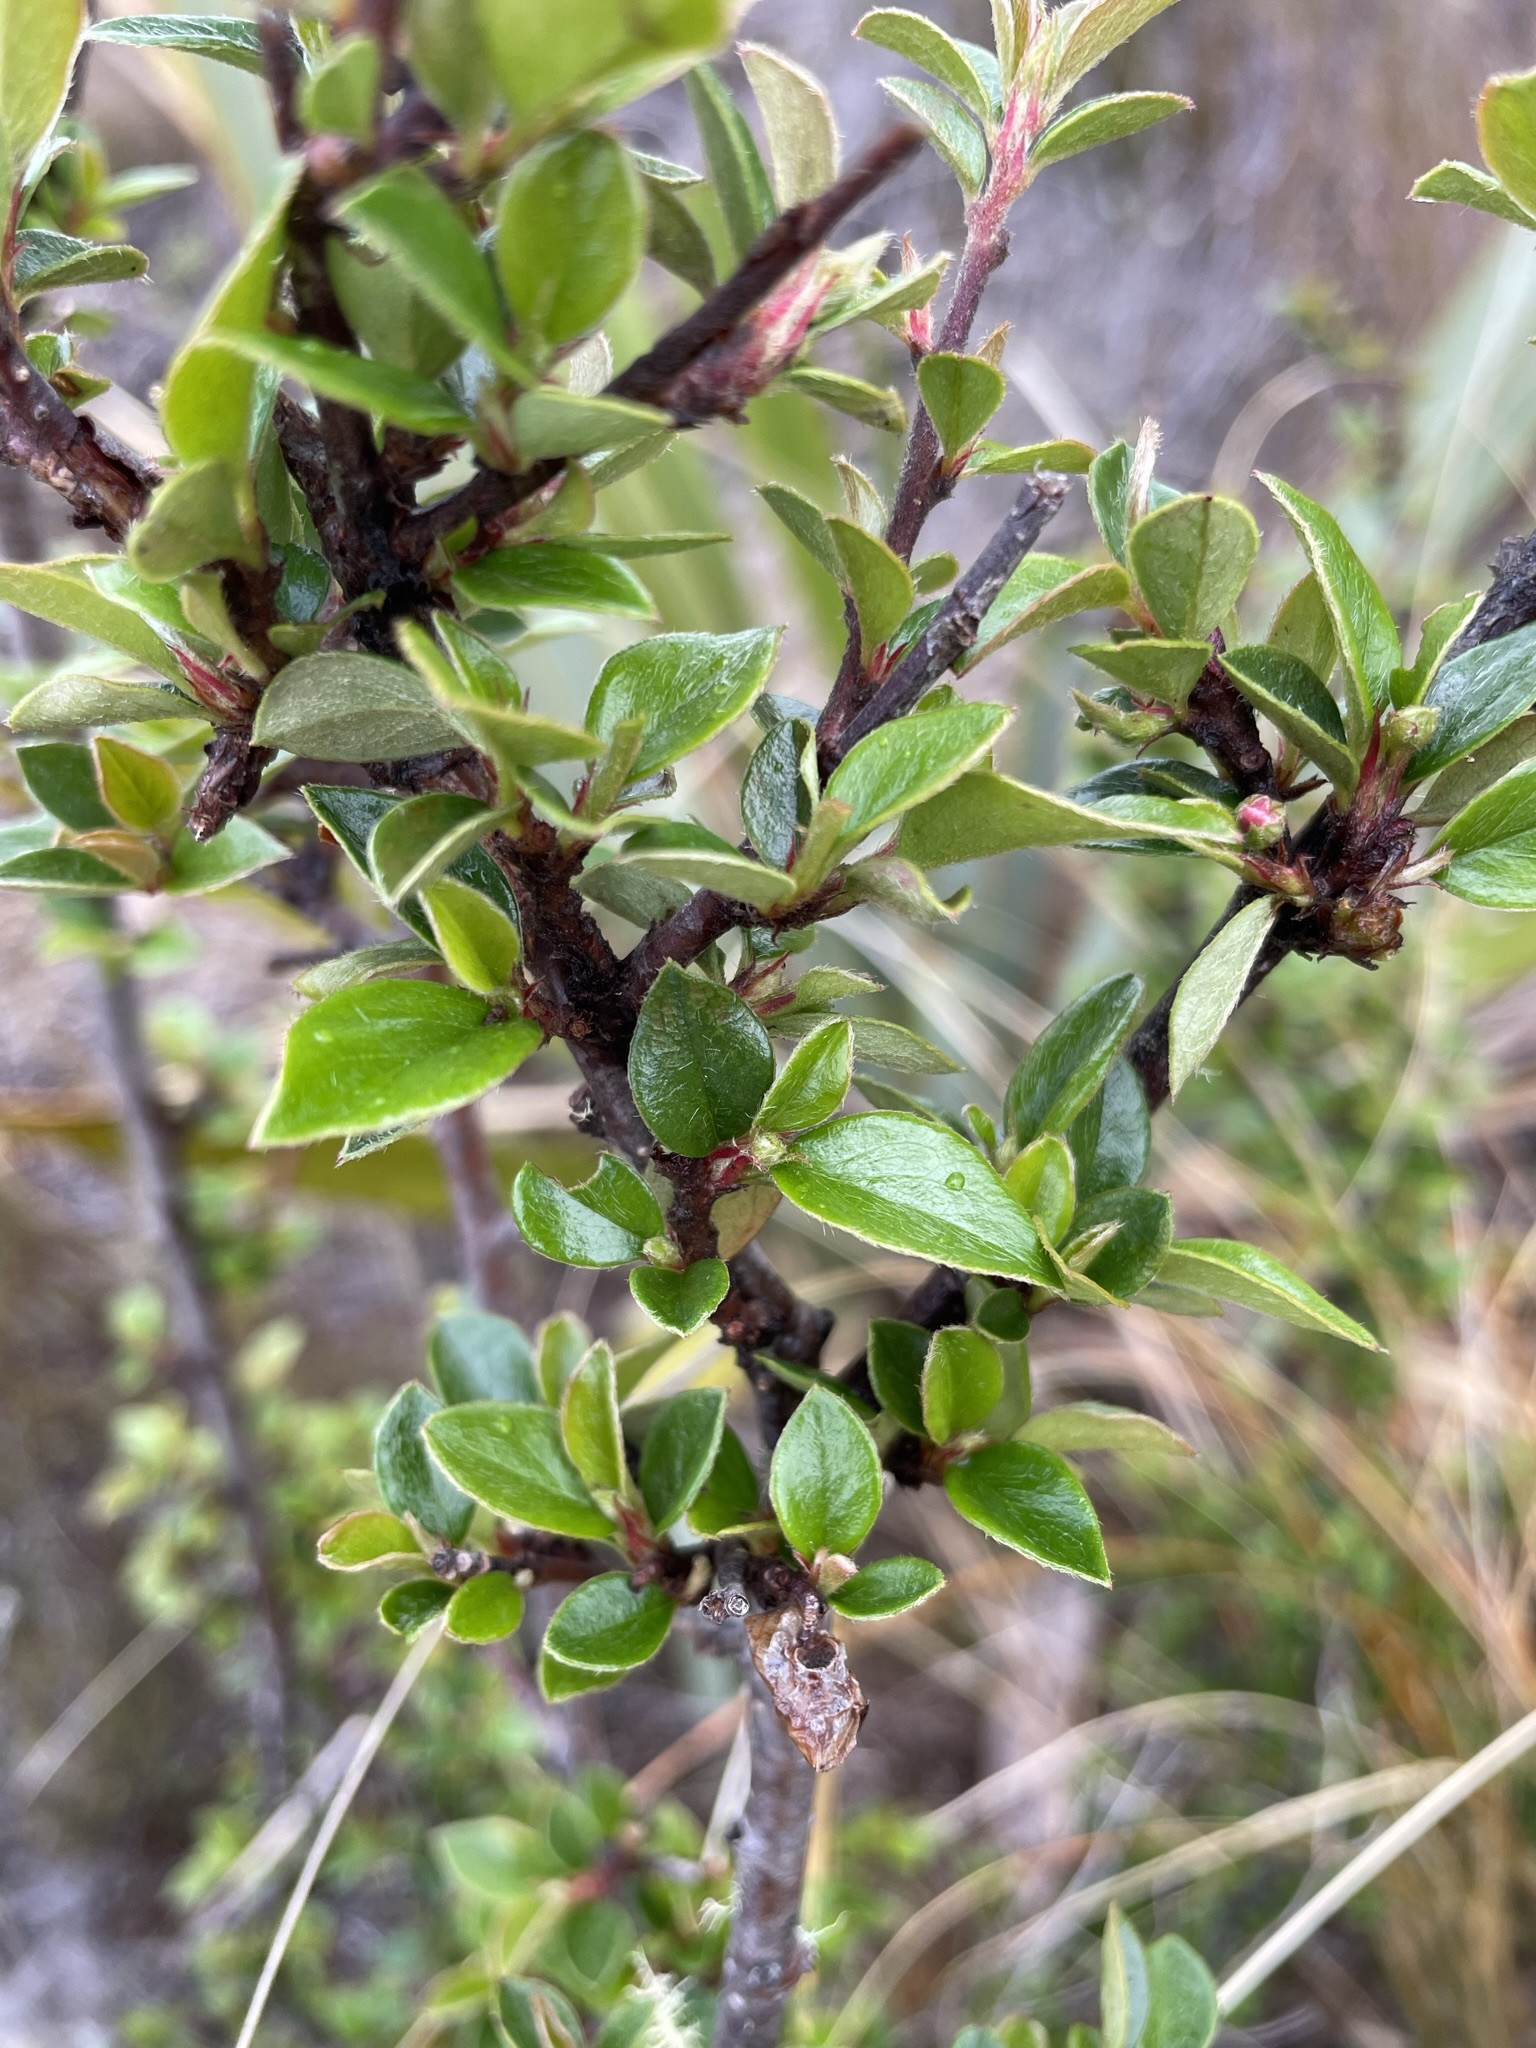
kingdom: Plantae
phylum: Tracheophyta
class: Magnoliopsida
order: Rosales
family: Rosaceae
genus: Cotoneaster
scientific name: Cotoneaster simonsii
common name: Himalayan cotoneaster
